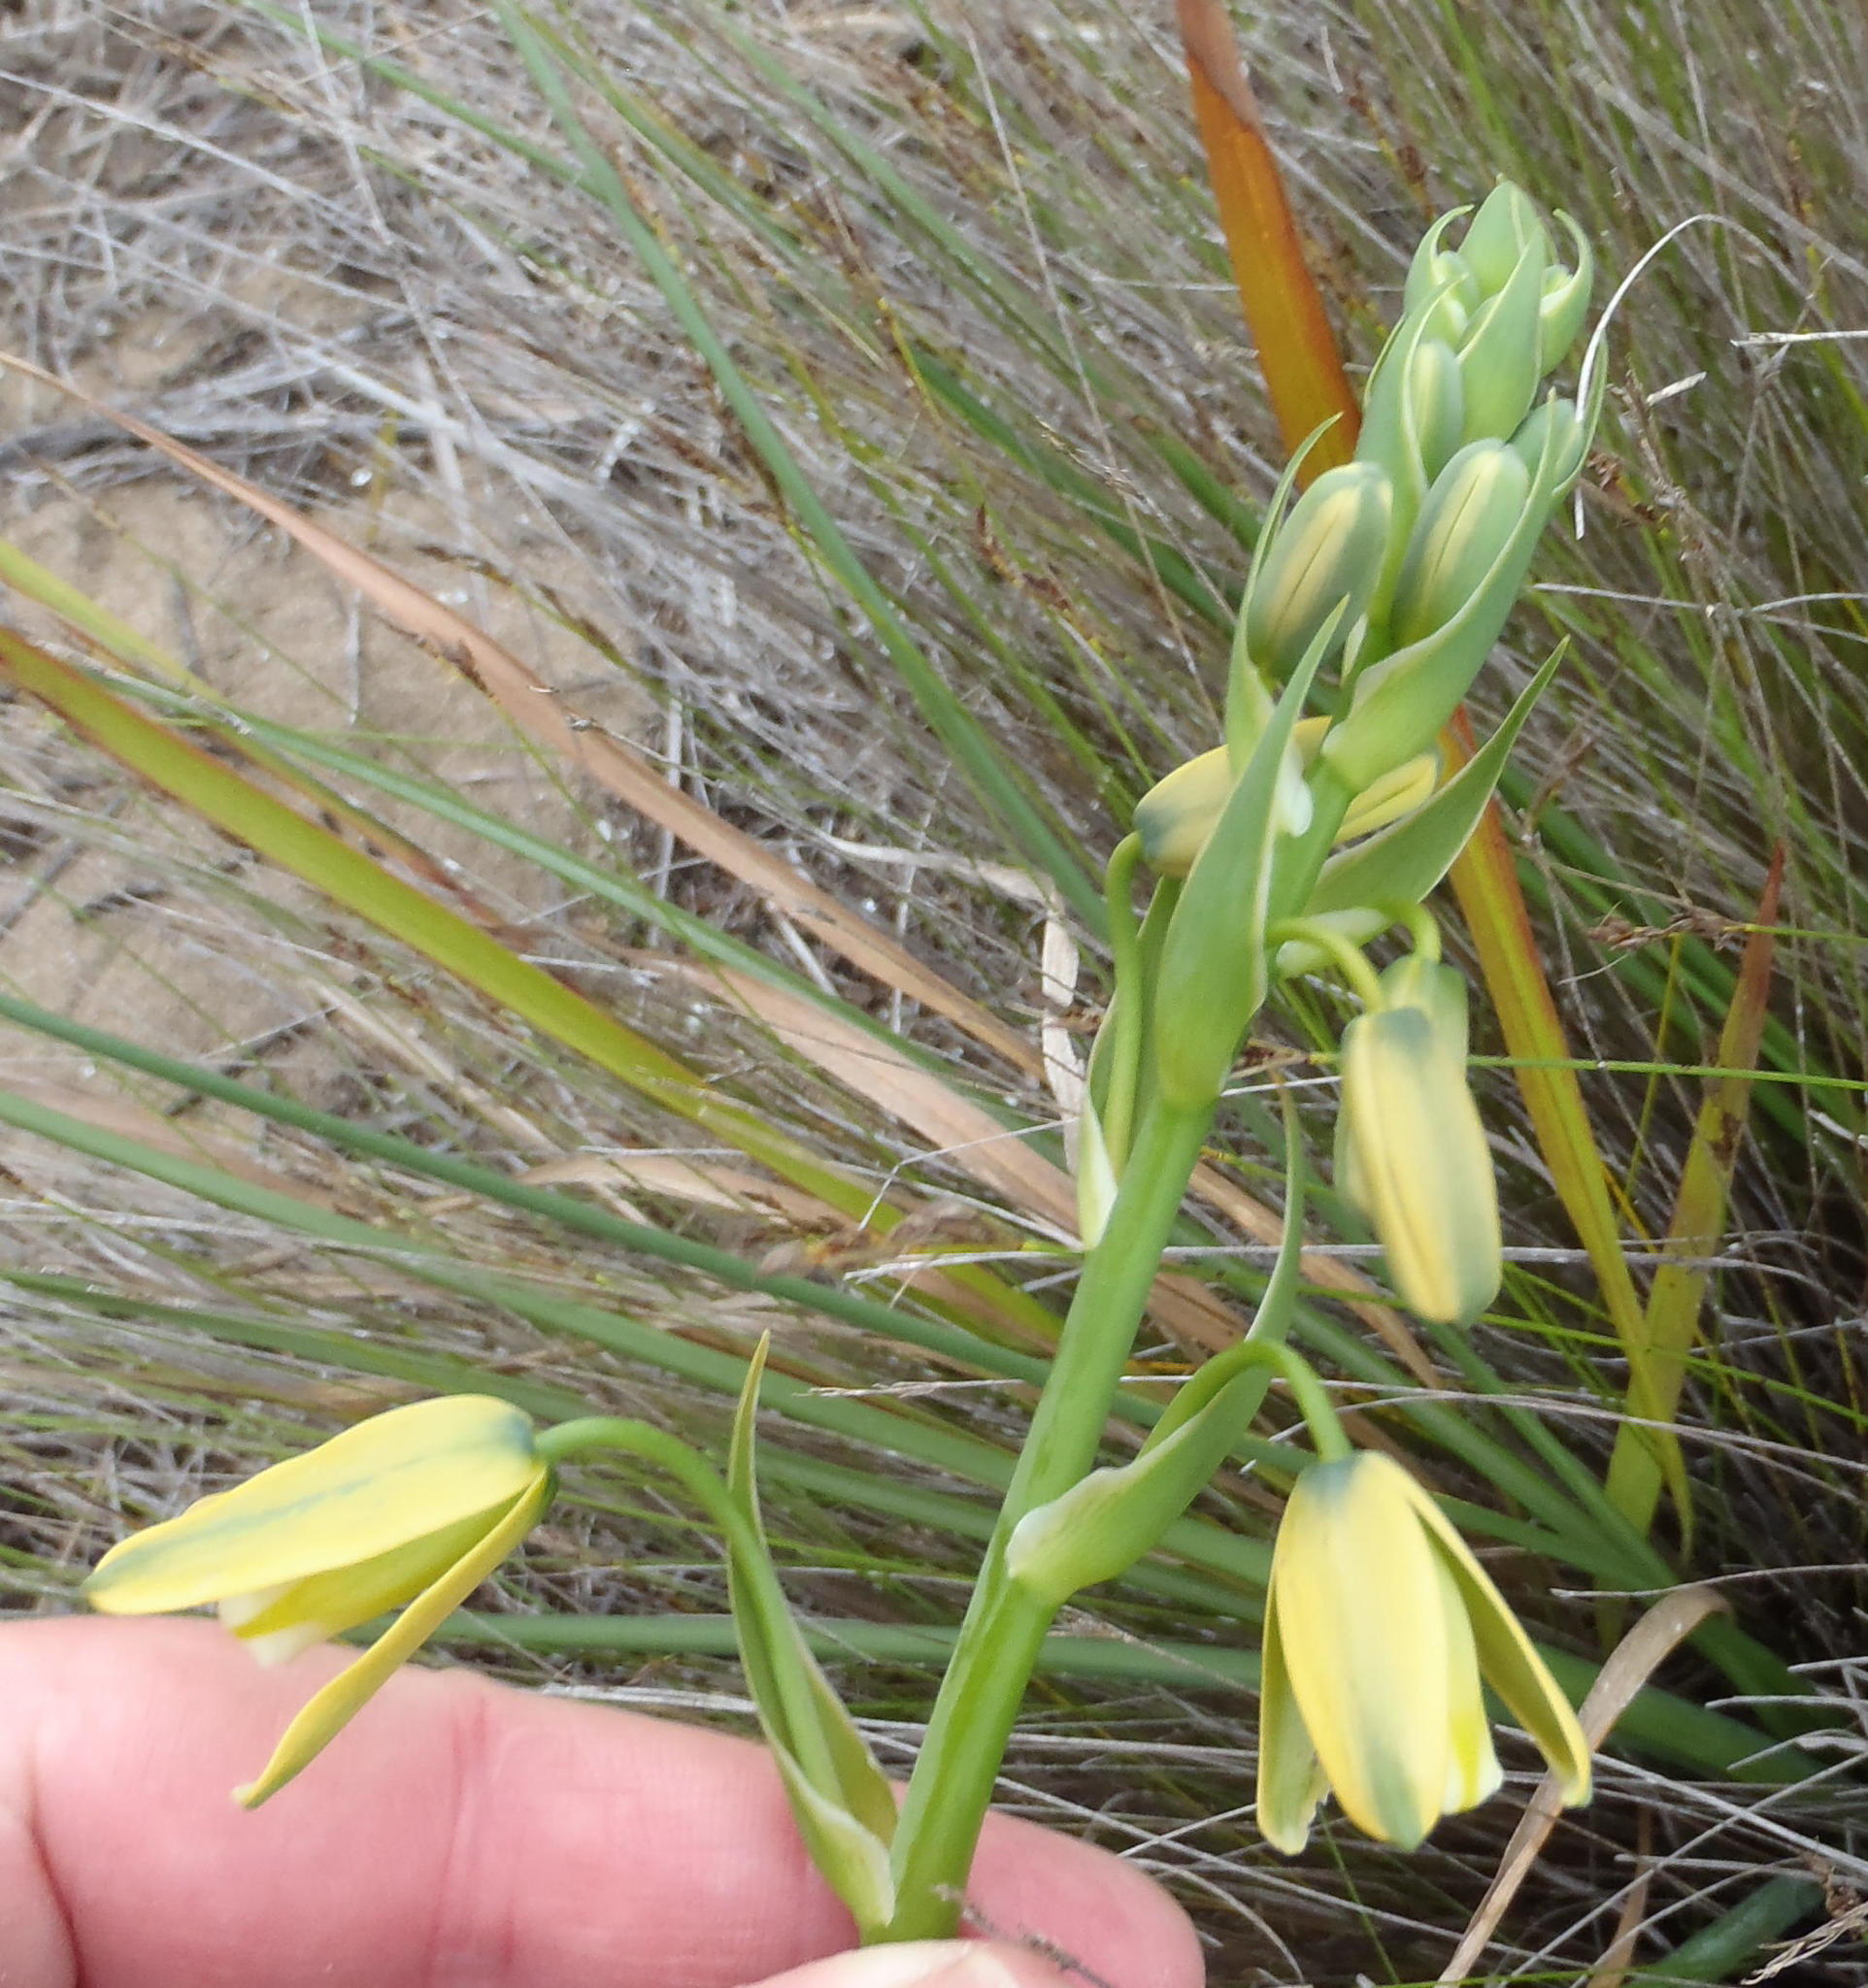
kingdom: Plantae
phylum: Tracheophyta
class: Liliopsida
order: Asparagales
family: Asparagaceae
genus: Albuca
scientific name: Albuca flaccida
